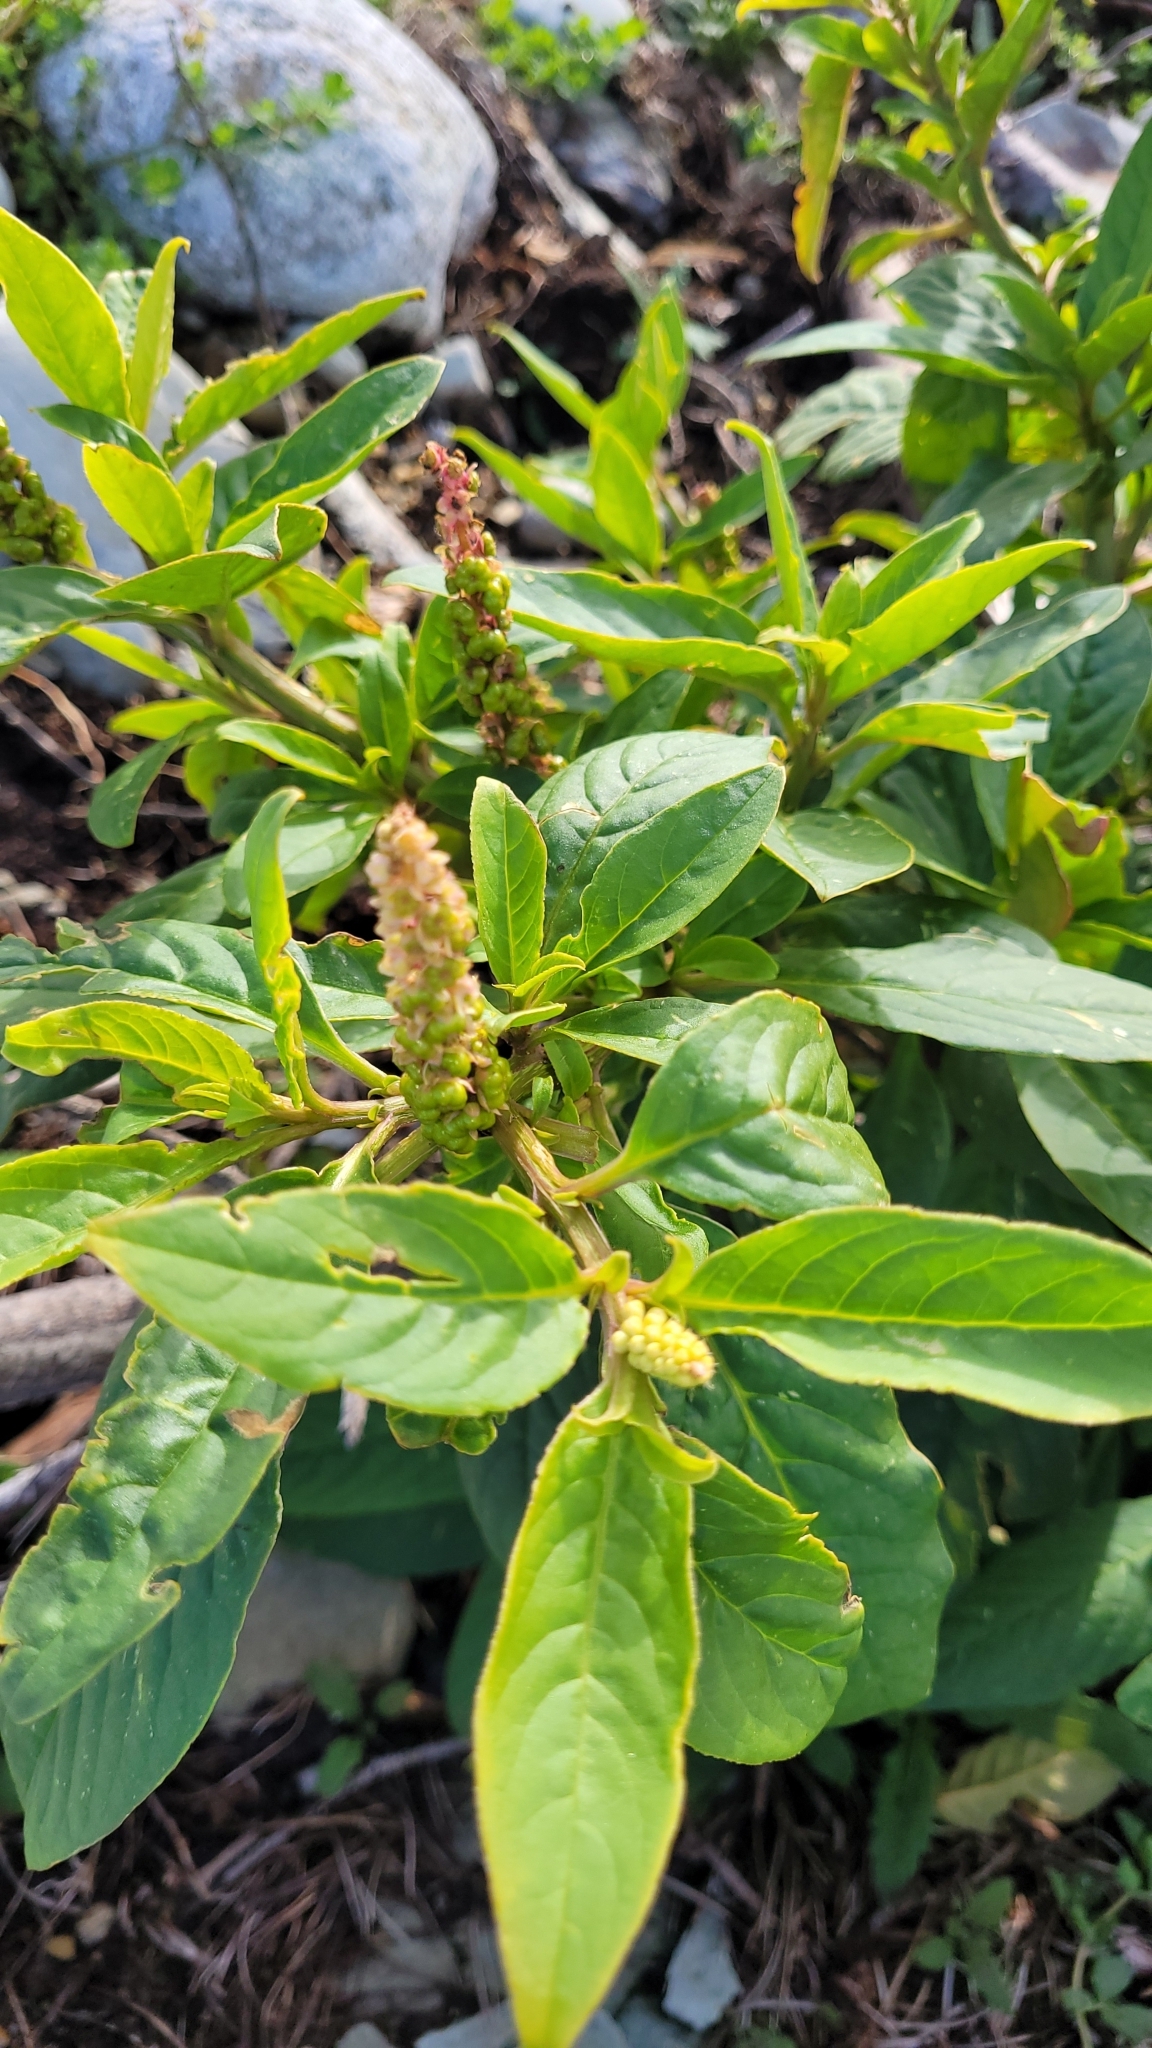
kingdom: Plantae
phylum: Tracheophyta
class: Magnoliopsida
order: Caryophyllales
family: Phytolaccaceae
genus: Phytolacca
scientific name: Phytolacca icosandra
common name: Button pokeweed
